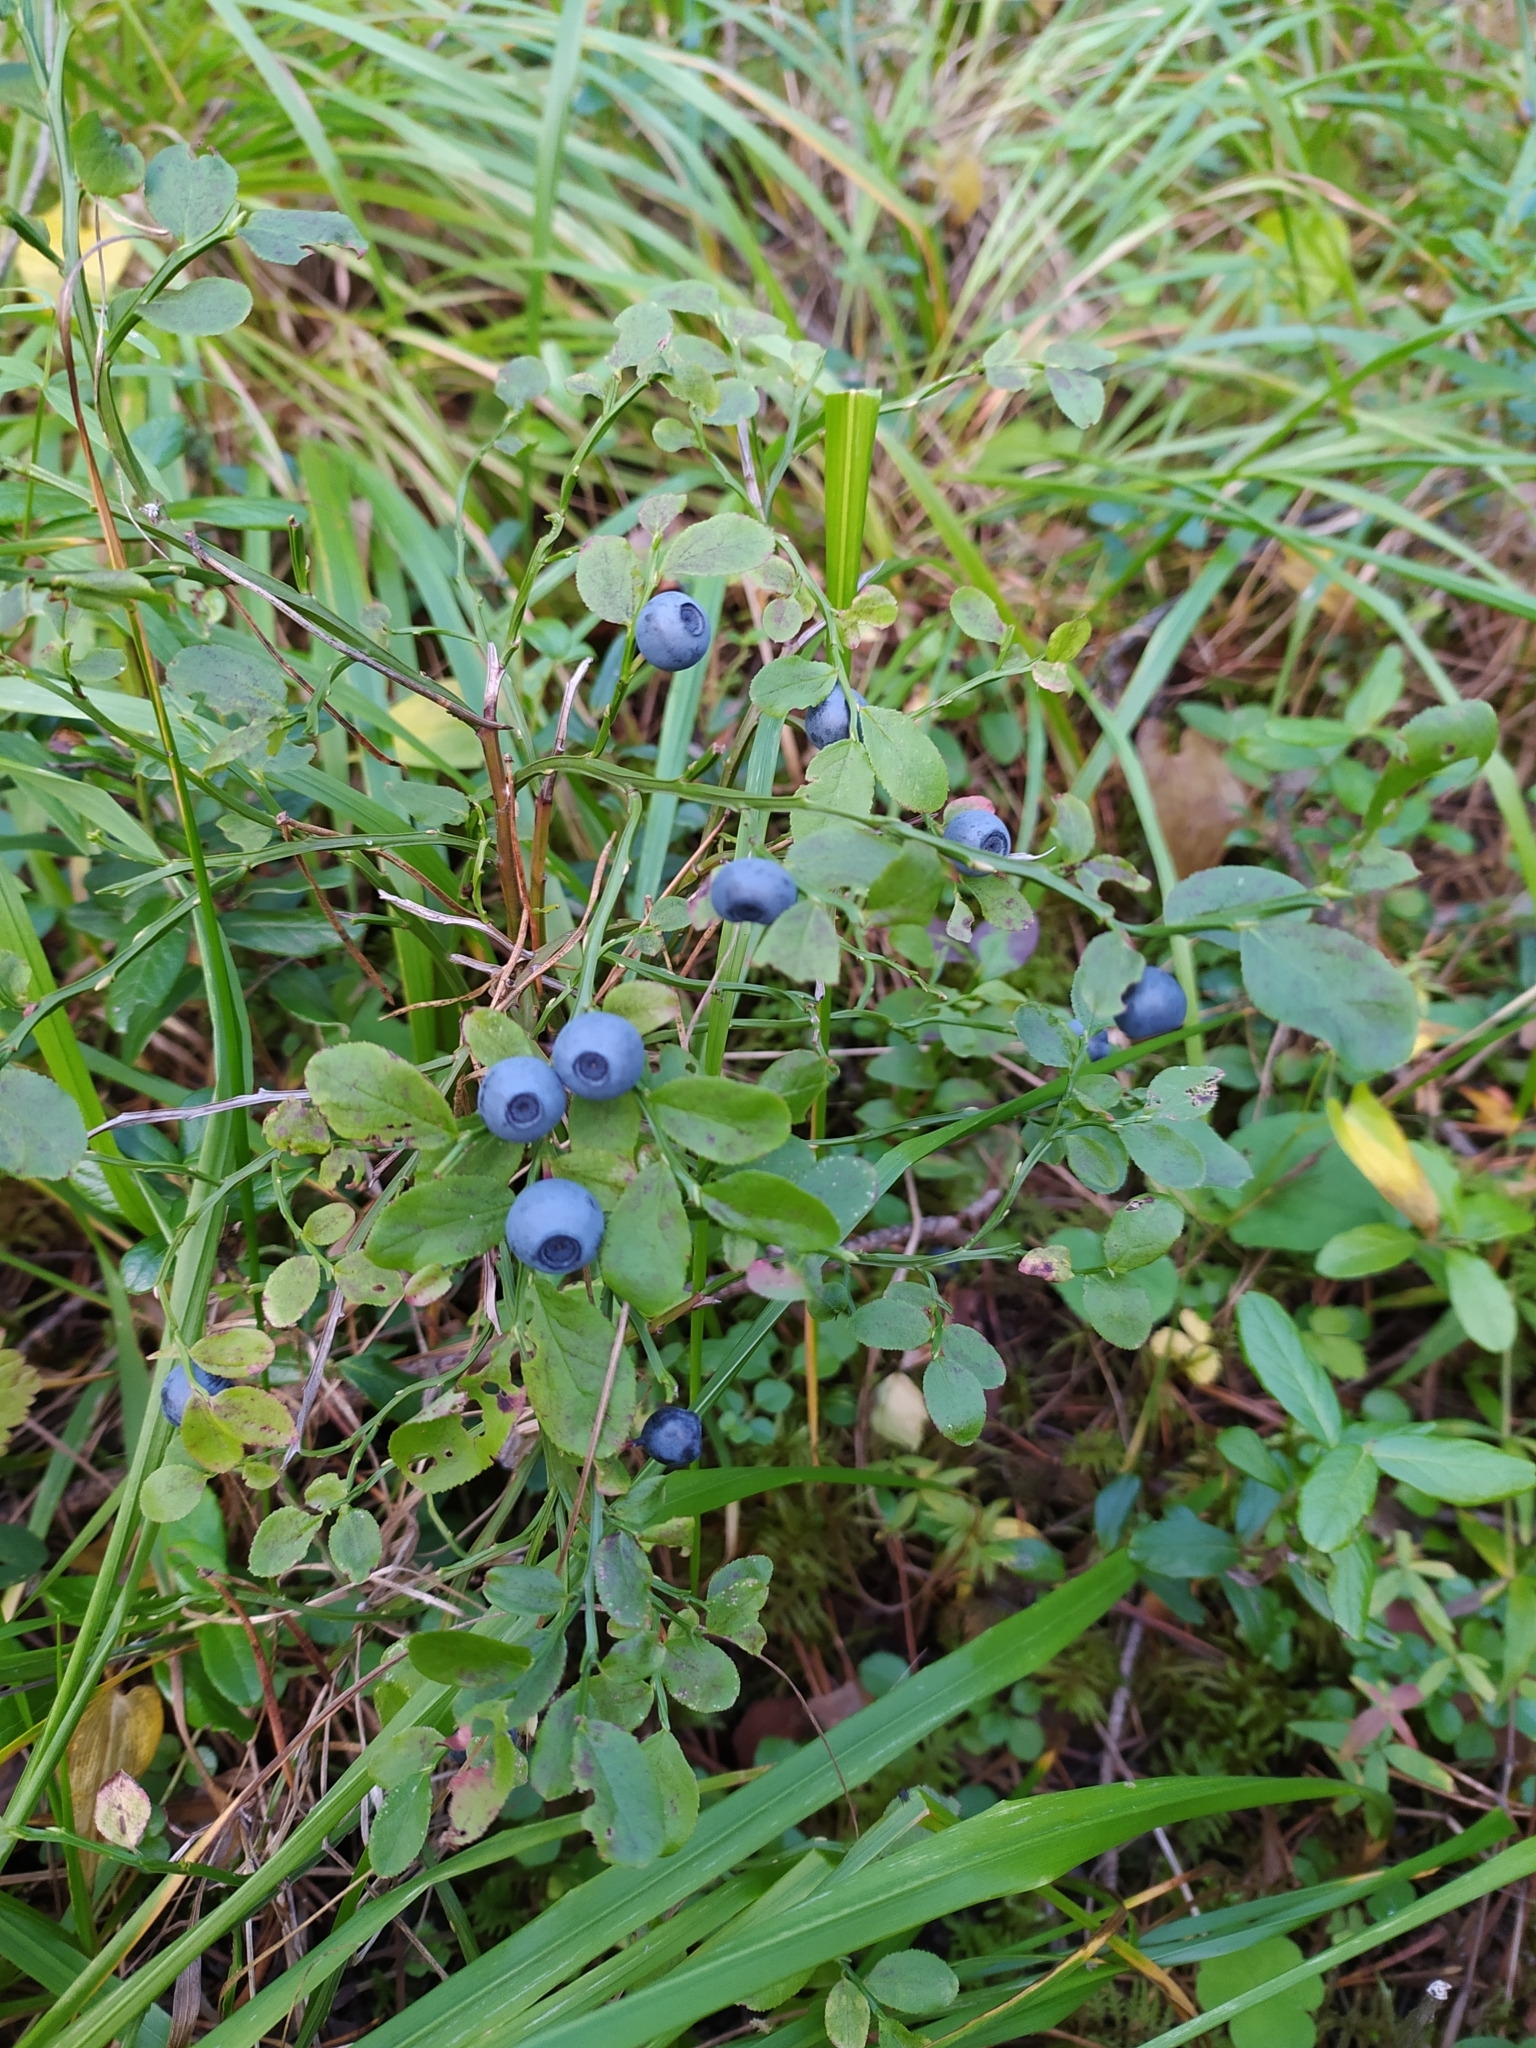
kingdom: Plantae
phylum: Tracheophyta
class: Magnoliopsida
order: Ericales
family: Ericaceae
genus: Vaccinium
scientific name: Vaccinium myrtillus
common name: Bilberry
